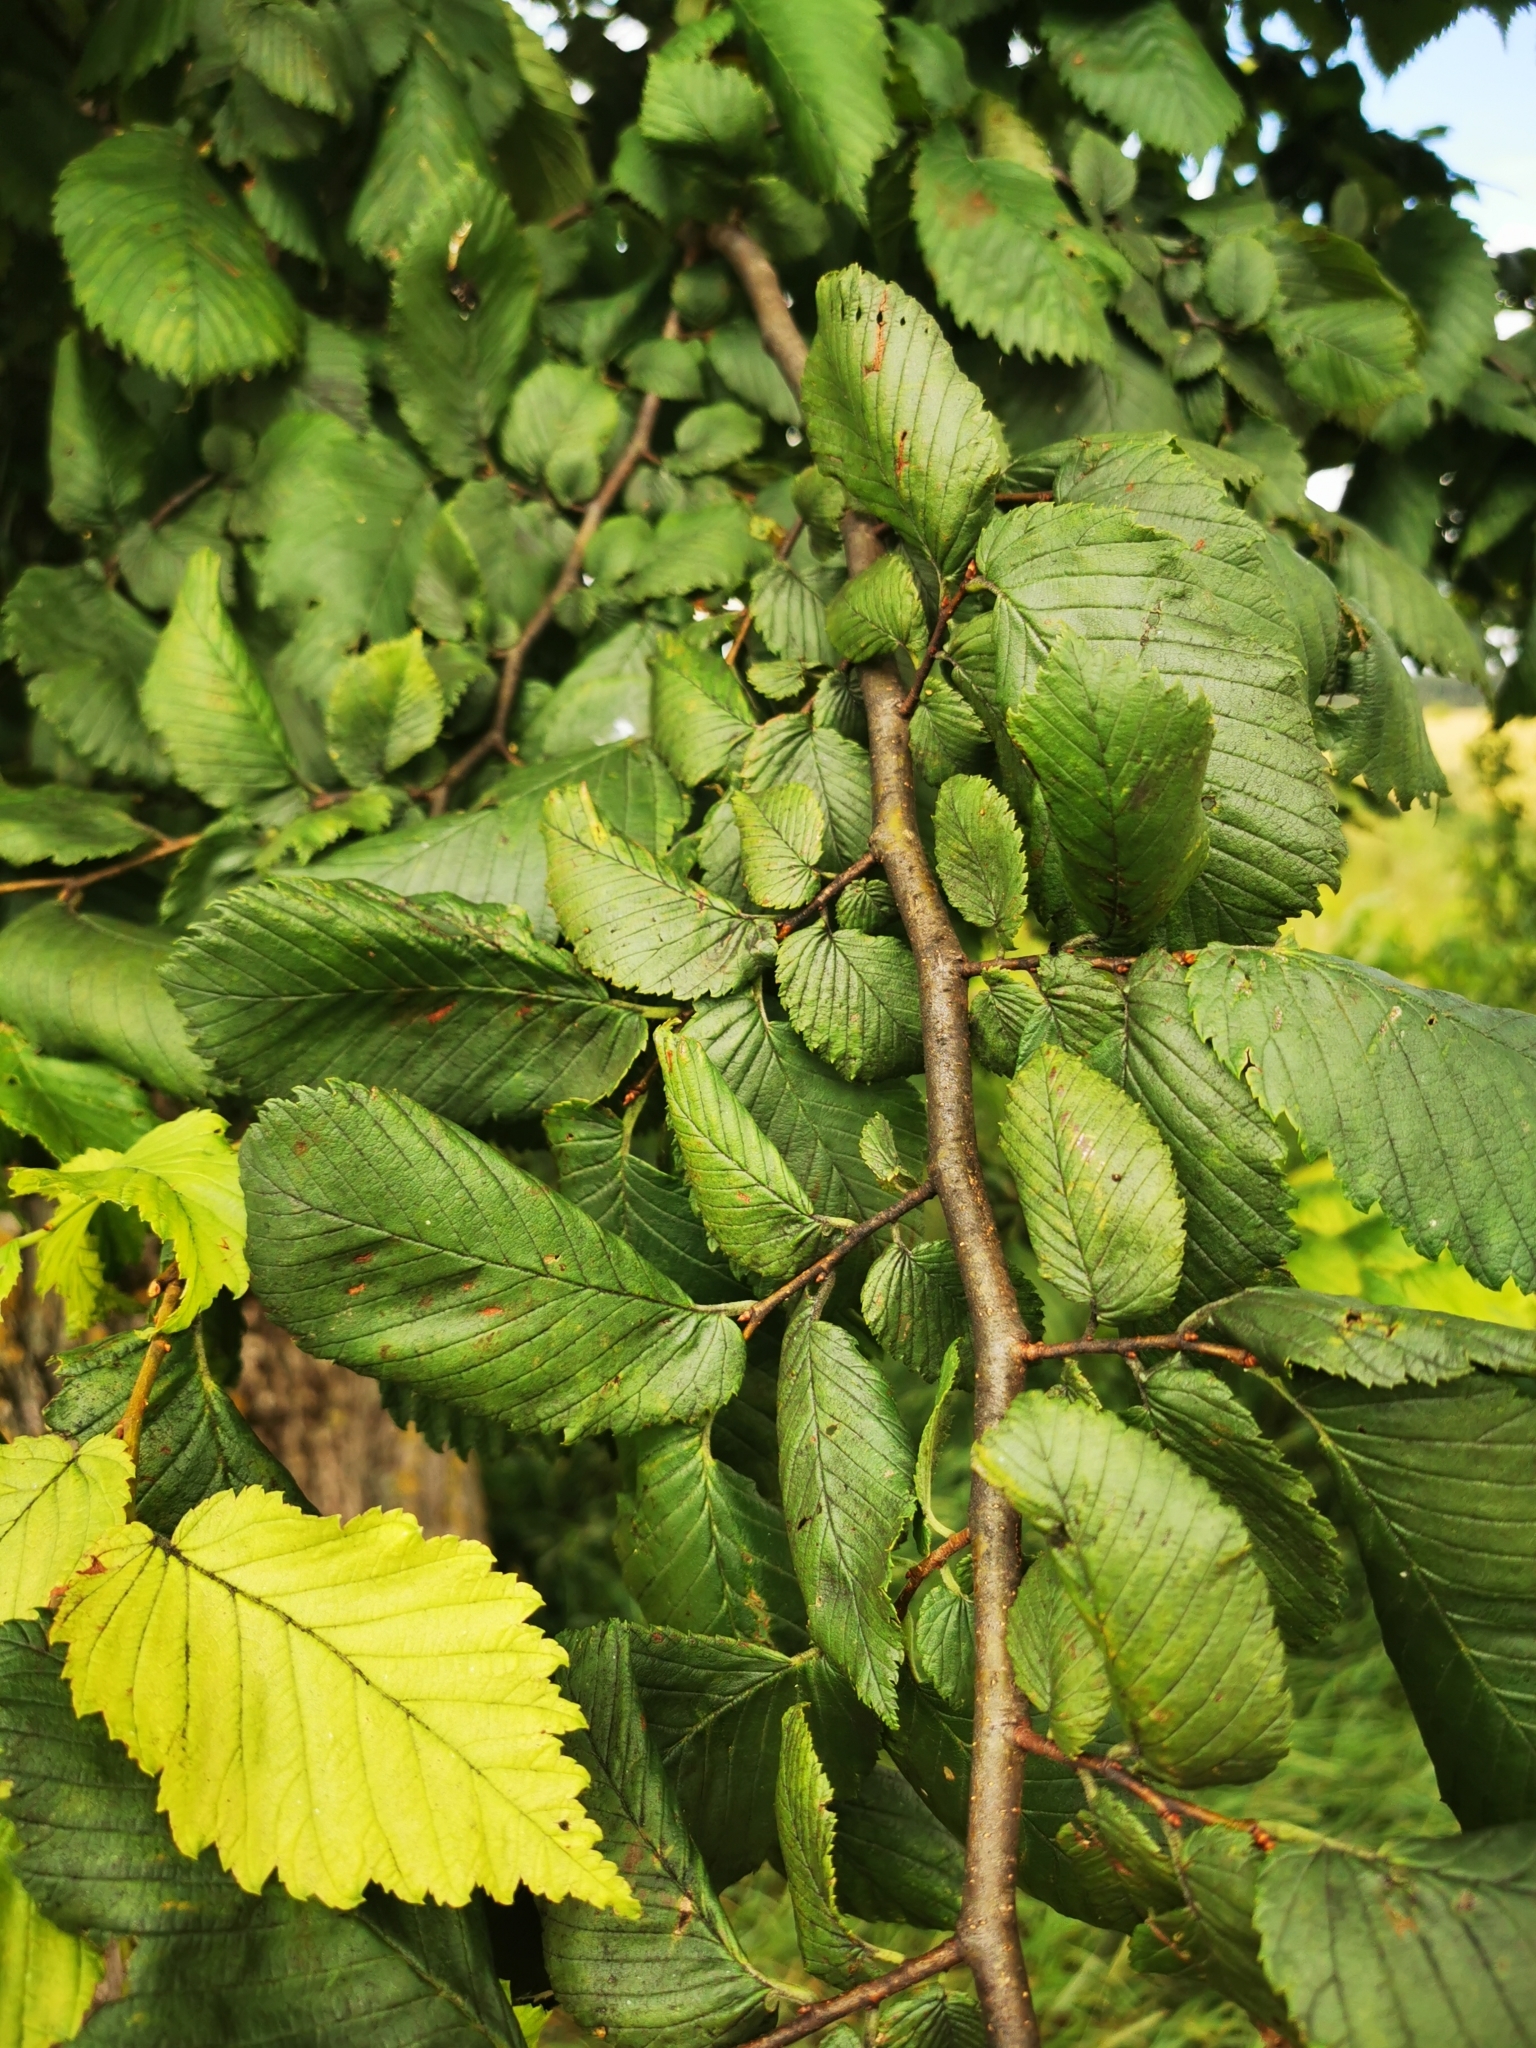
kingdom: Plantae
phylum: Tracheophyta
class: Magnoliopsida
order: Rosales
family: Ulmaceae
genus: Ulmus
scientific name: Ulmus laevis
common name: European white-elm
